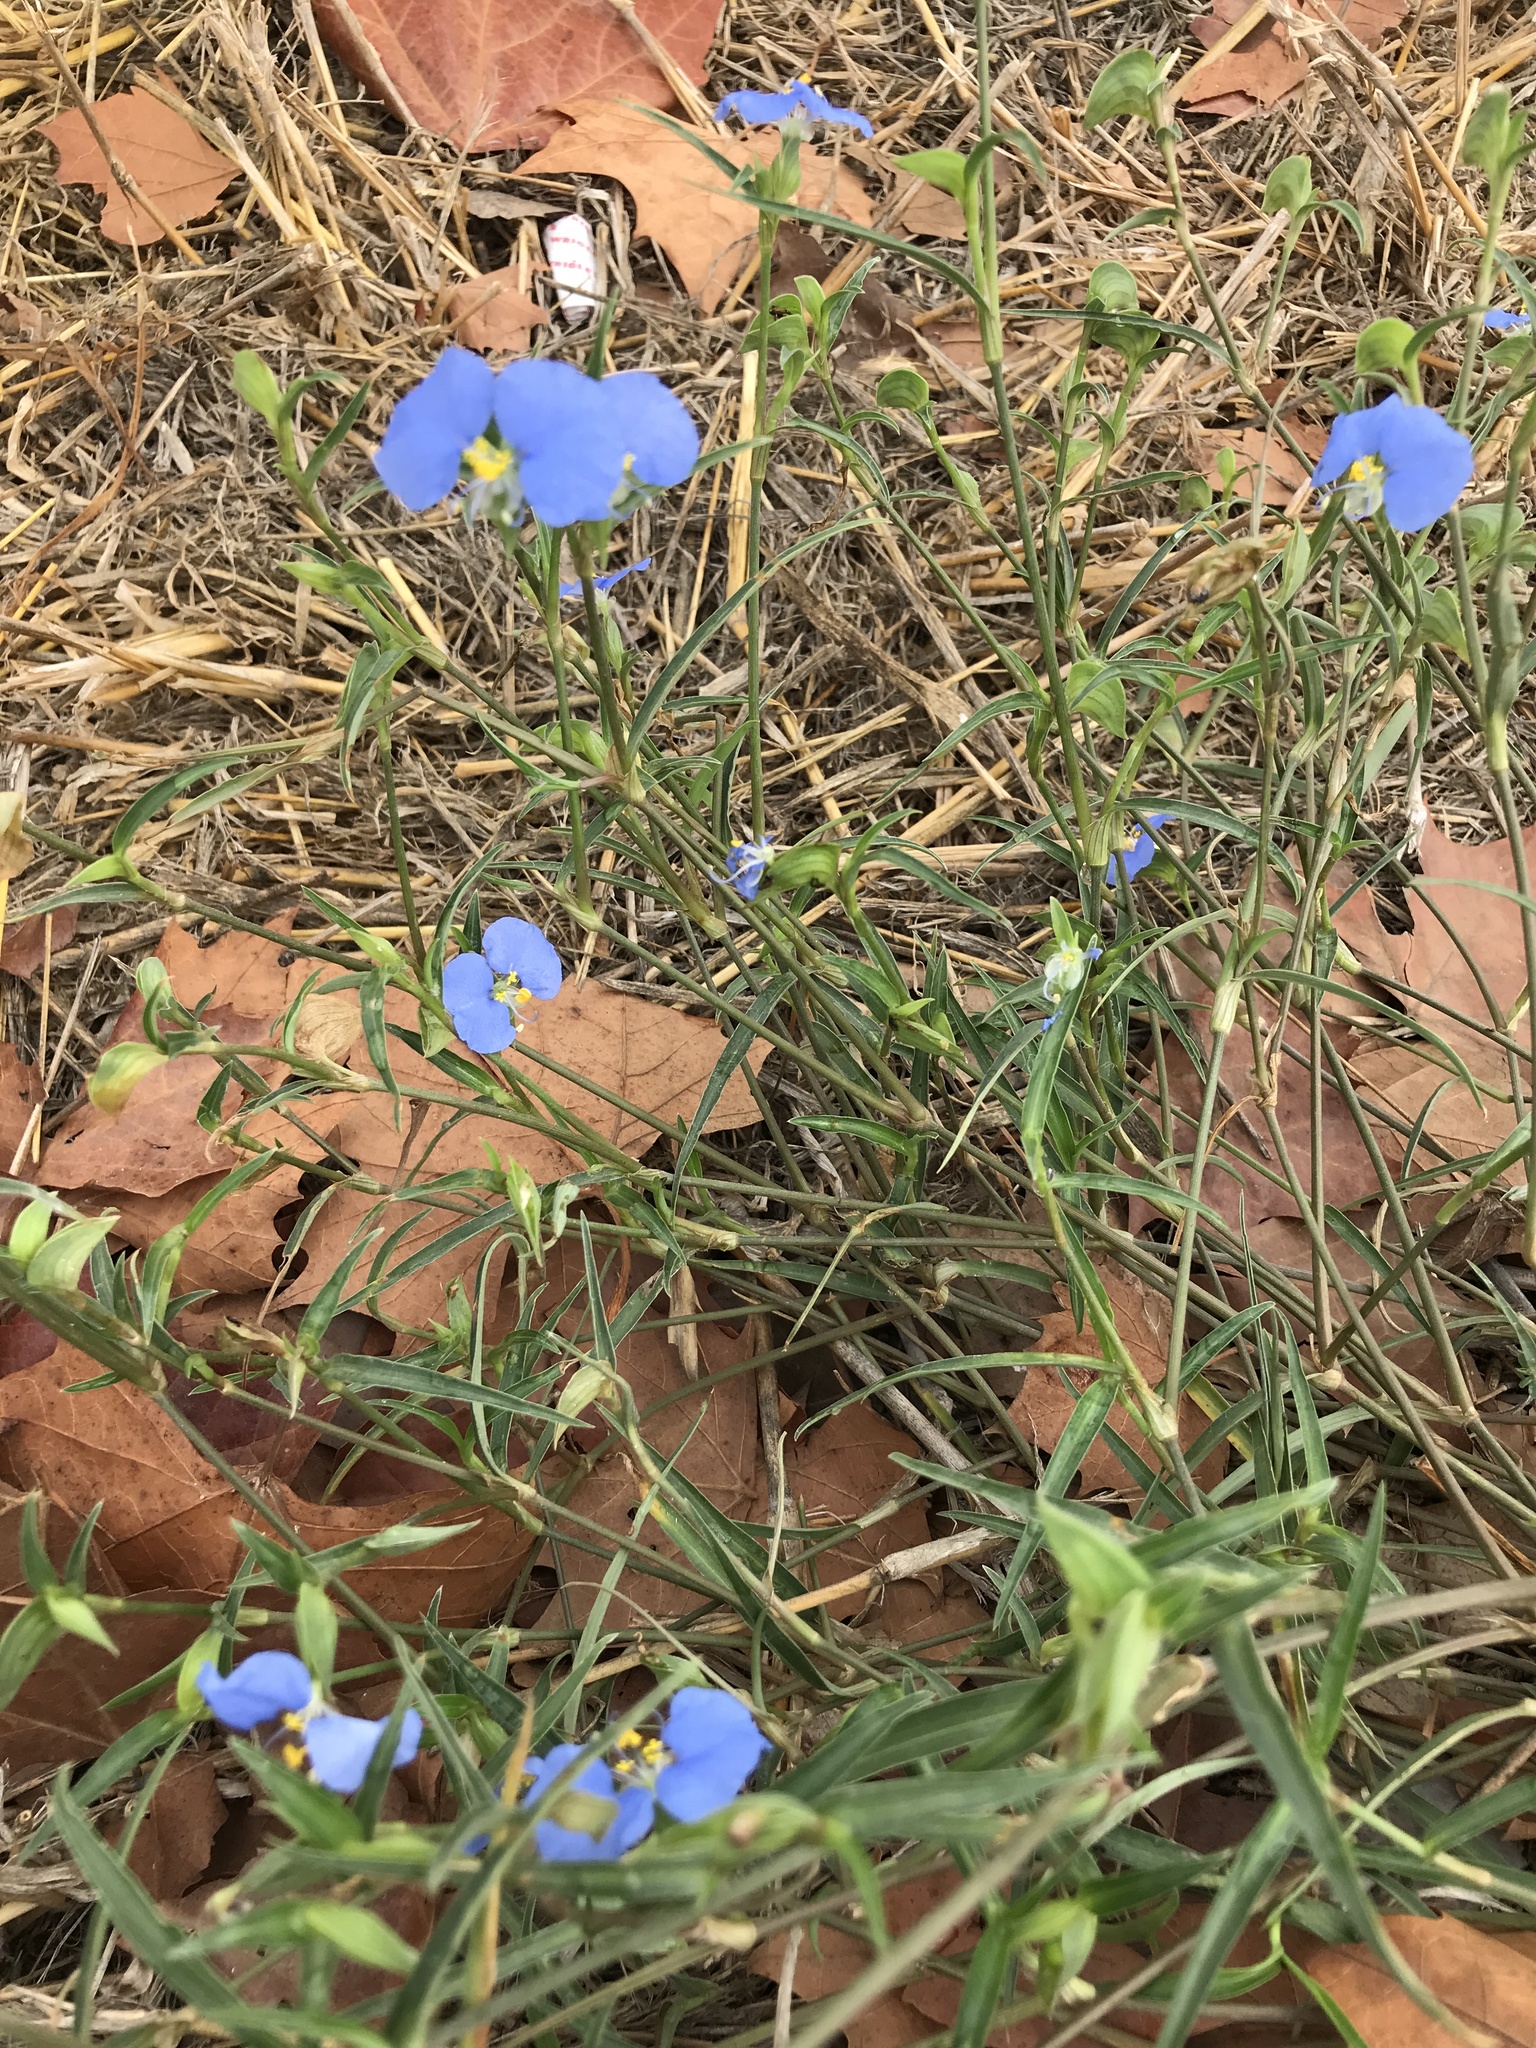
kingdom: Plantae
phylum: Tracheophyta
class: Liliopsida
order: Commelinales
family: Commelinaceae
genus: Commelina
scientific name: Commelina erecta
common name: Blousel blommetjie
